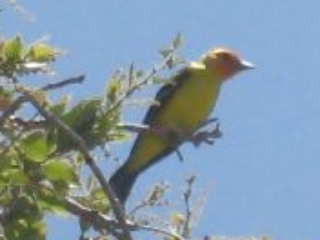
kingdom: Animalia
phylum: Chordata
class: Aves
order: Passeriformes
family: Cardinalidae
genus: Piranga
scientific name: Piranga ludoviciana
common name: Western tanager
